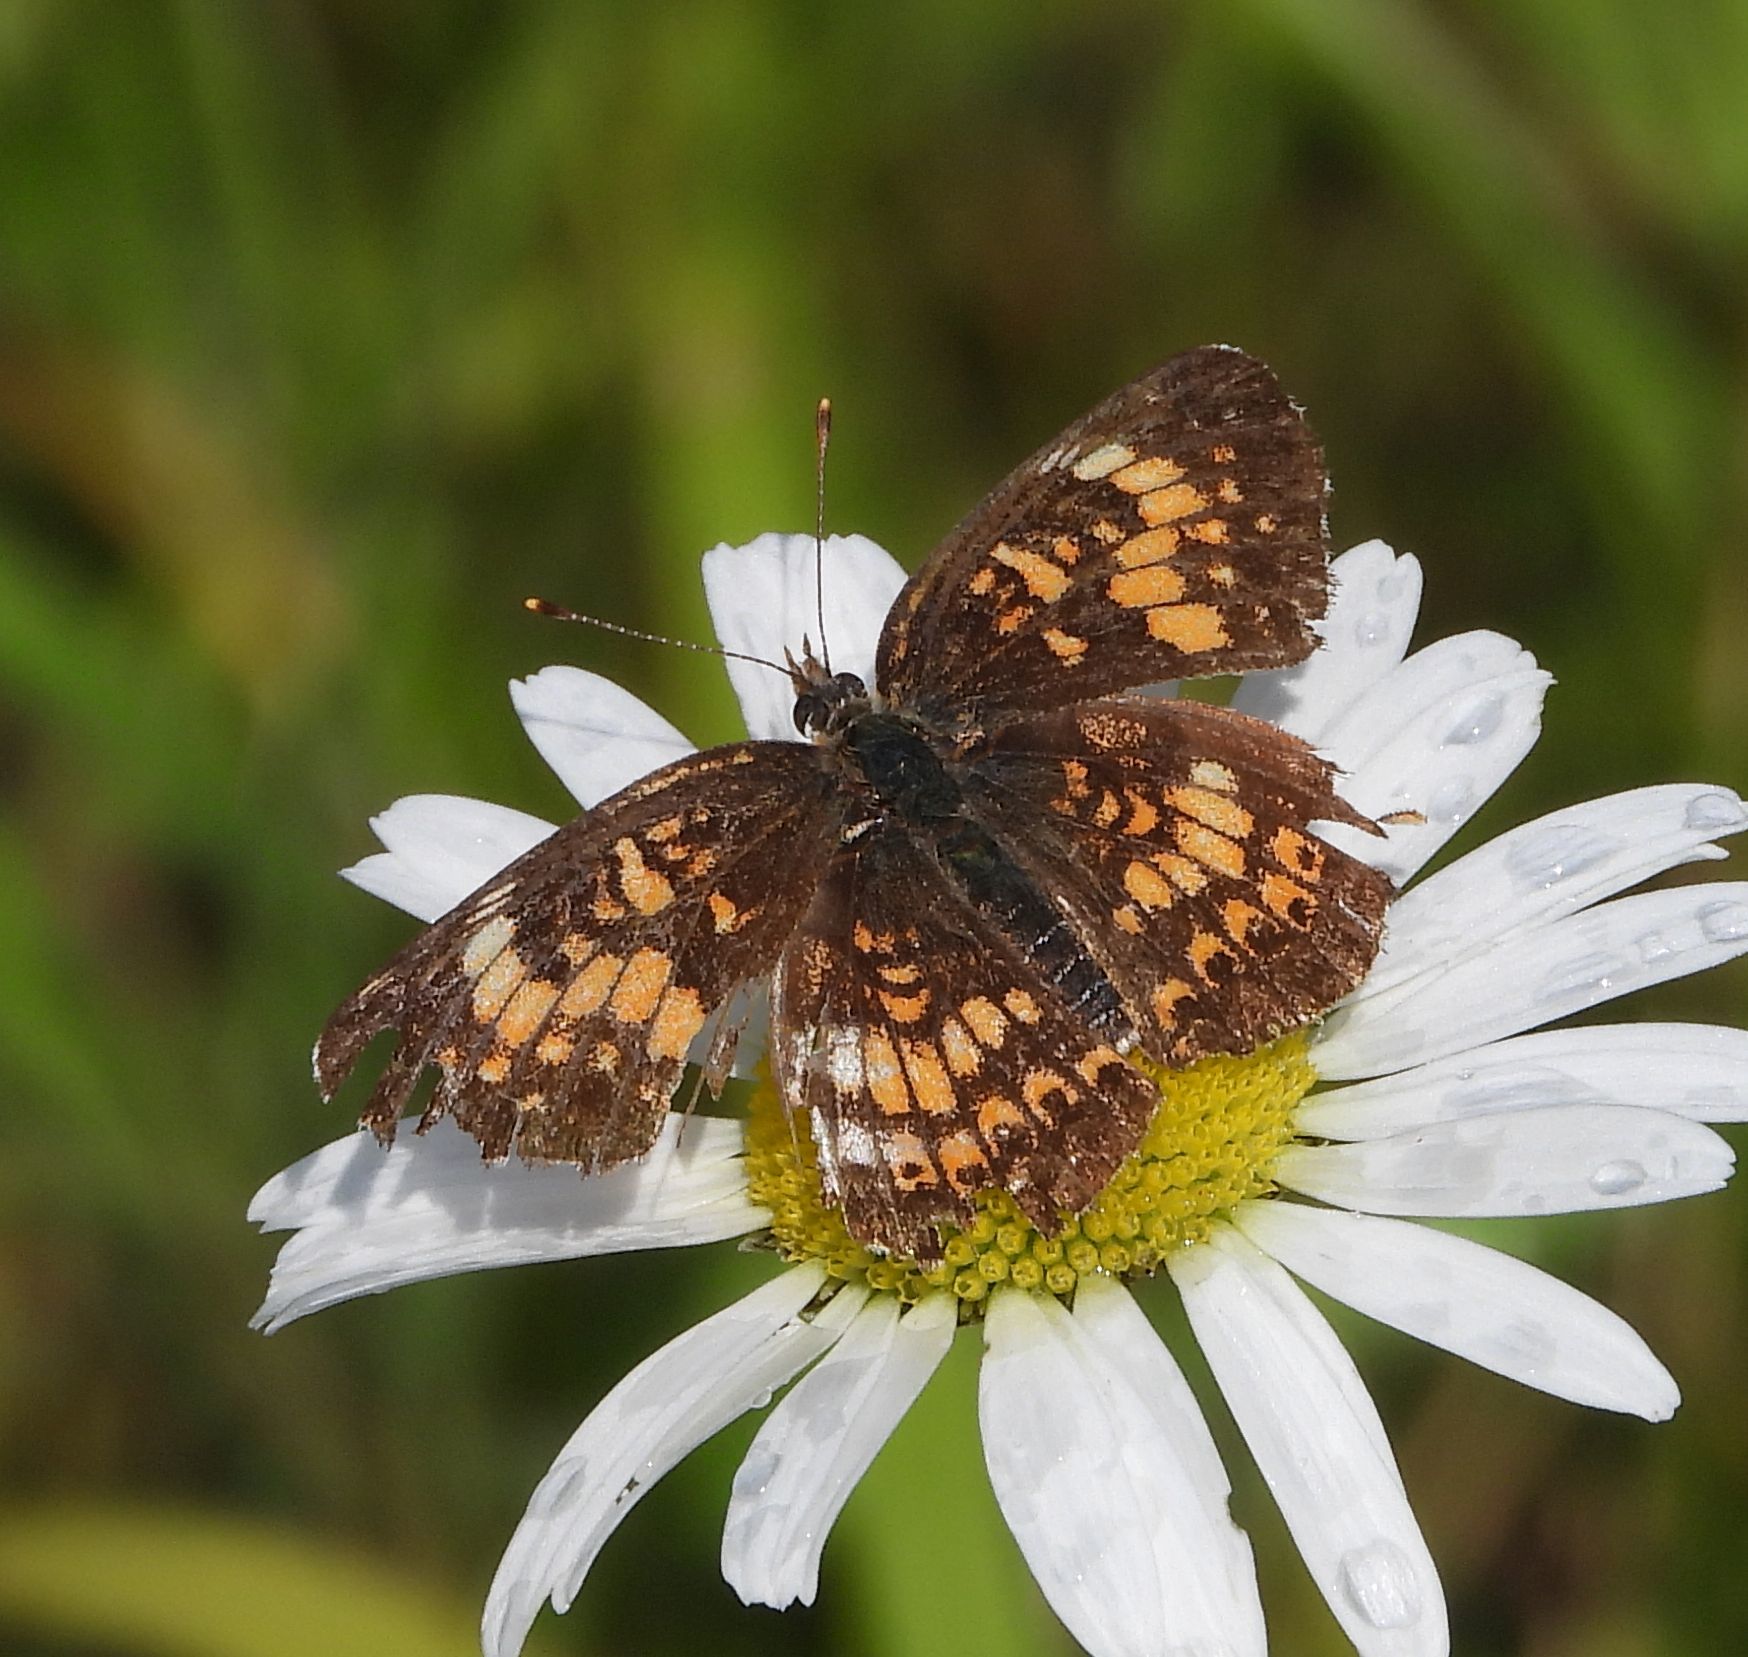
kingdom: Animalia
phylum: Arthropoda
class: Insecta
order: Lepidoptera
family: Nymphalidae
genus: Chlosyne
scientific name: Chlosyne harrisii
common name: Harris's checkerspot
